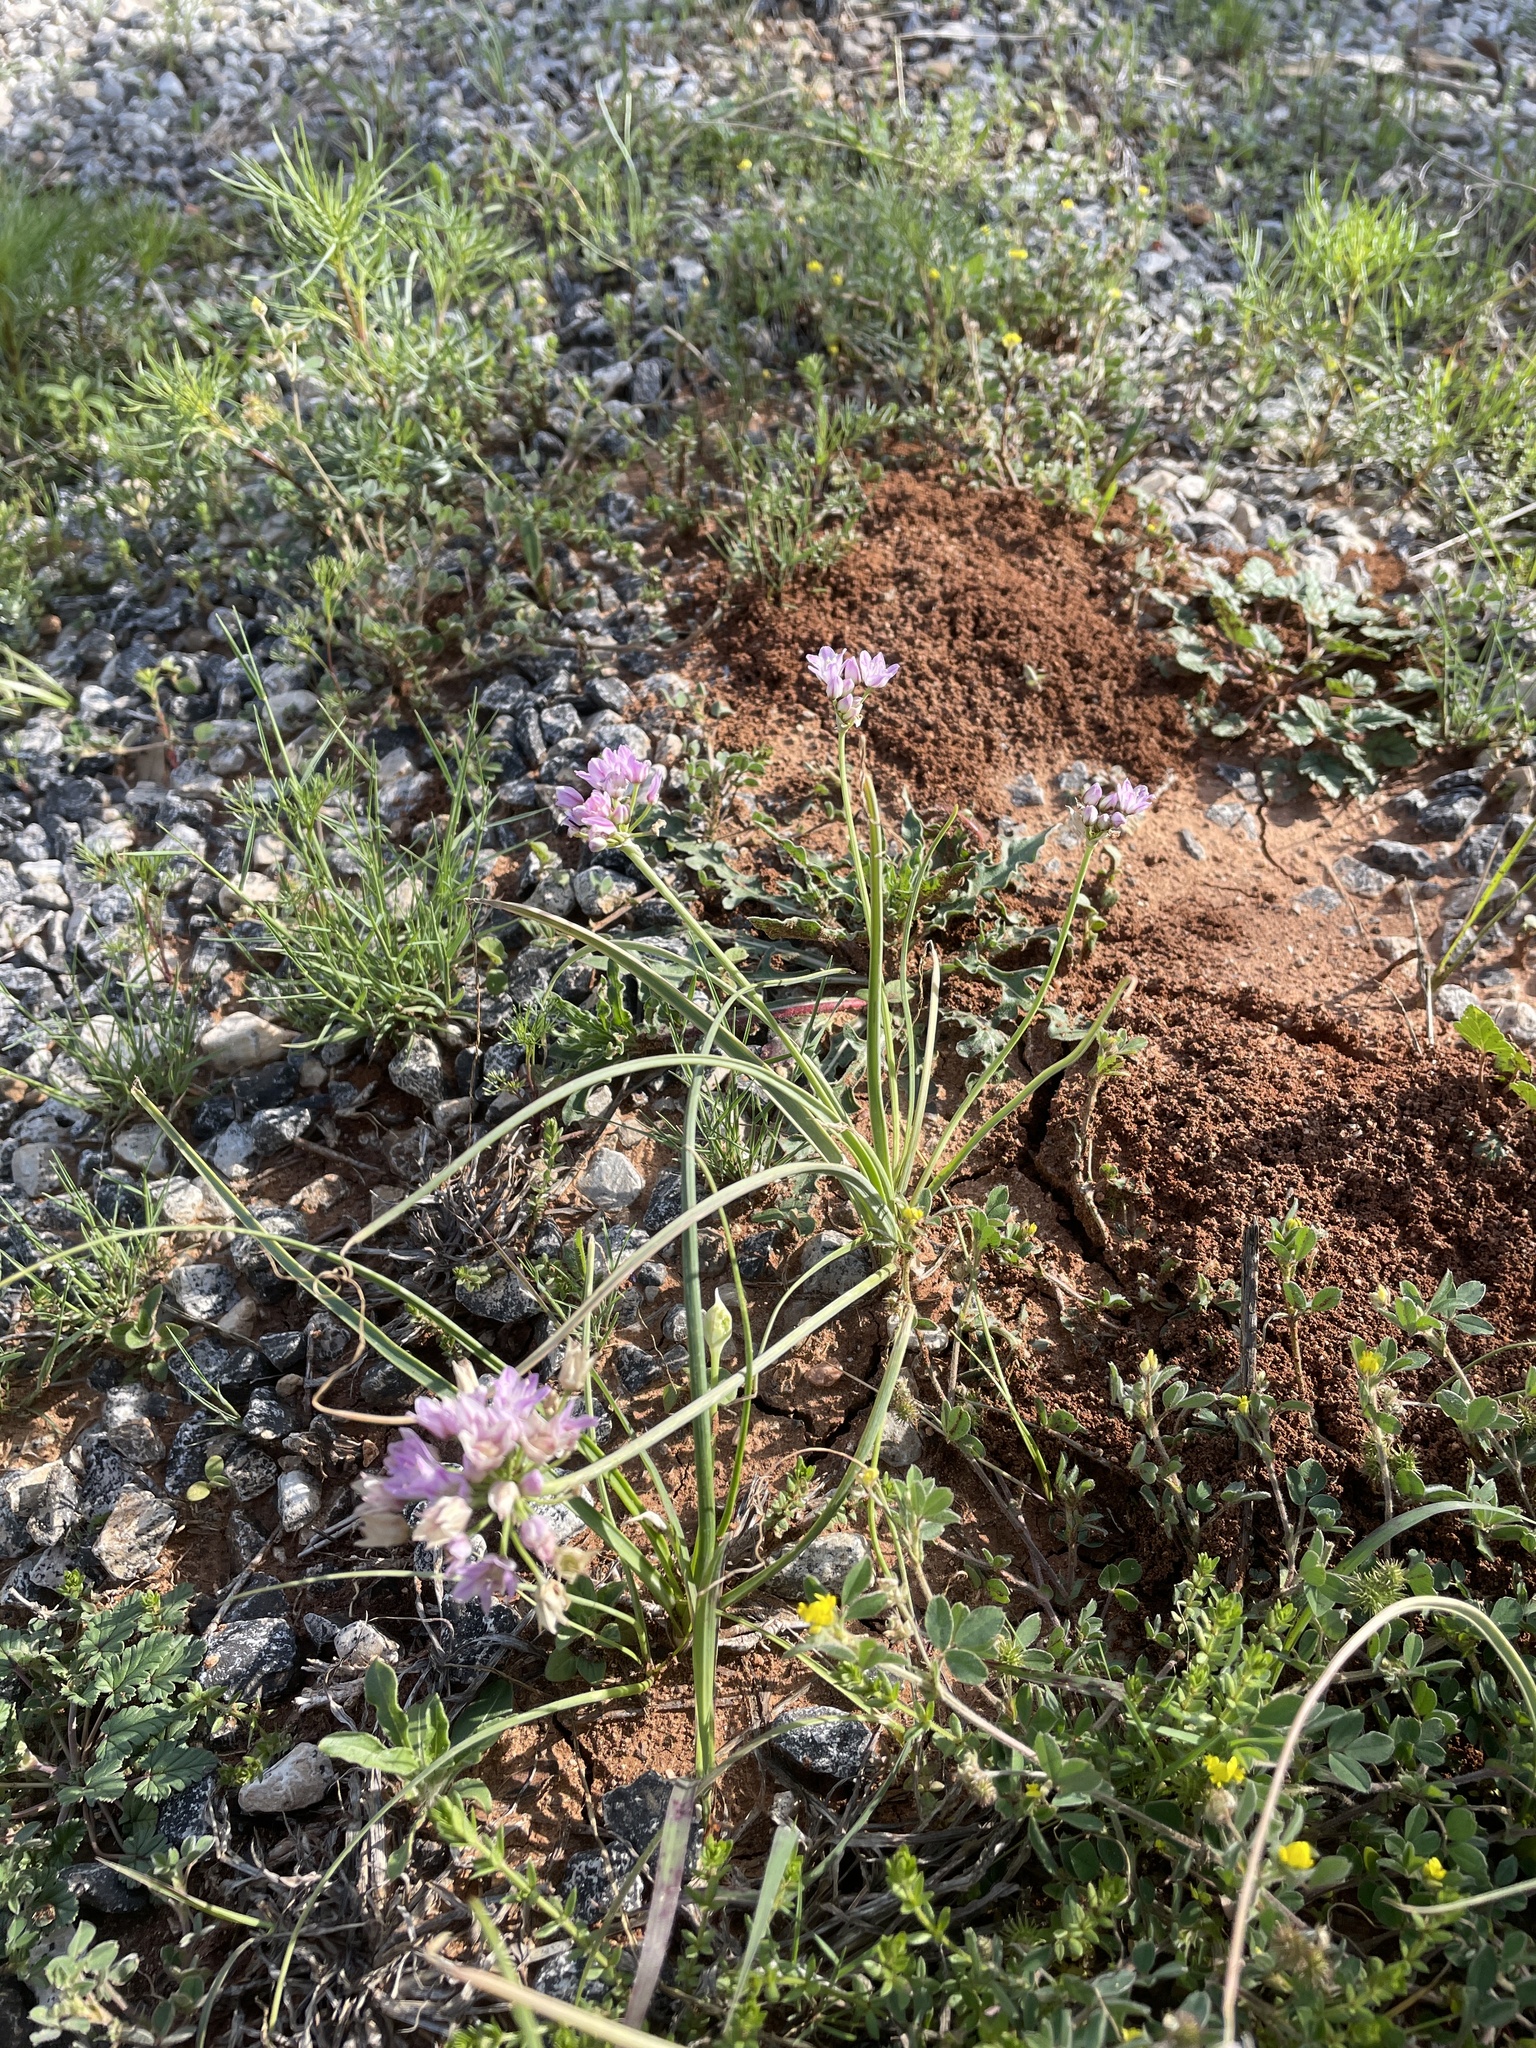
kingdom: Plantae
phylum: Tracheophyta
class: Liliopsida
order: Asparagales
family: Amaryllidaceae
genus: Allium
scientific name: Allium drummondii
